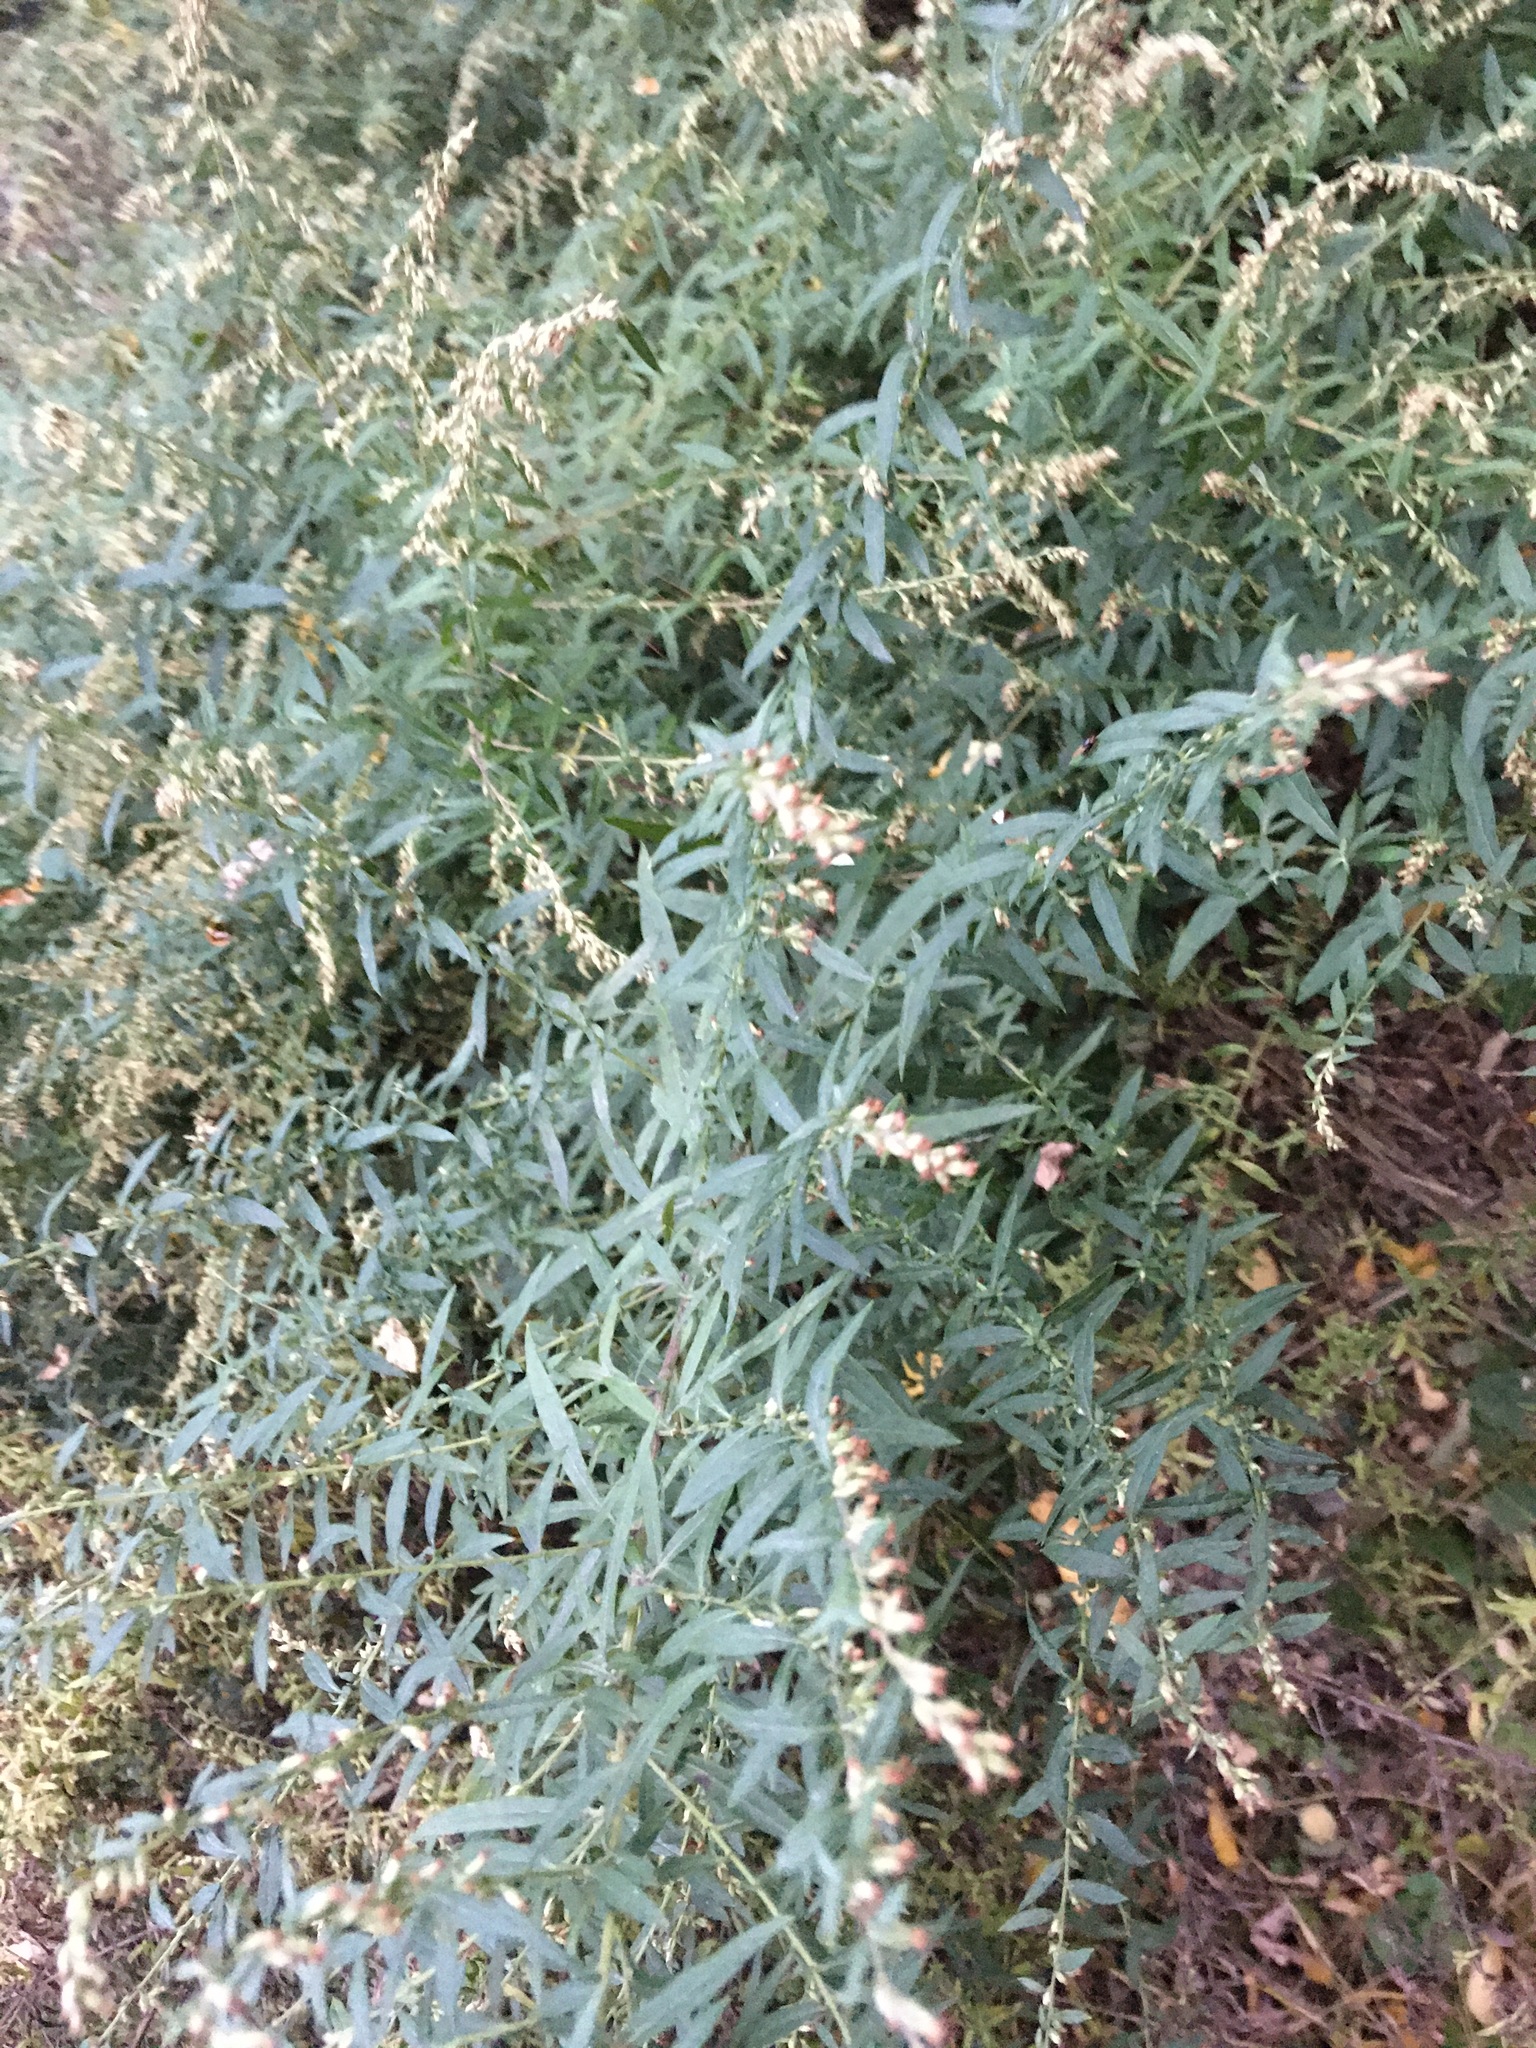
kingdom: Plantae
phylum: Tracheophyta
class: Magnoliopsida
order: Asterales
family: Asteraceae
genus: Artemisia
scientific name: Artemisia vulgaris
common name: Mugwort
